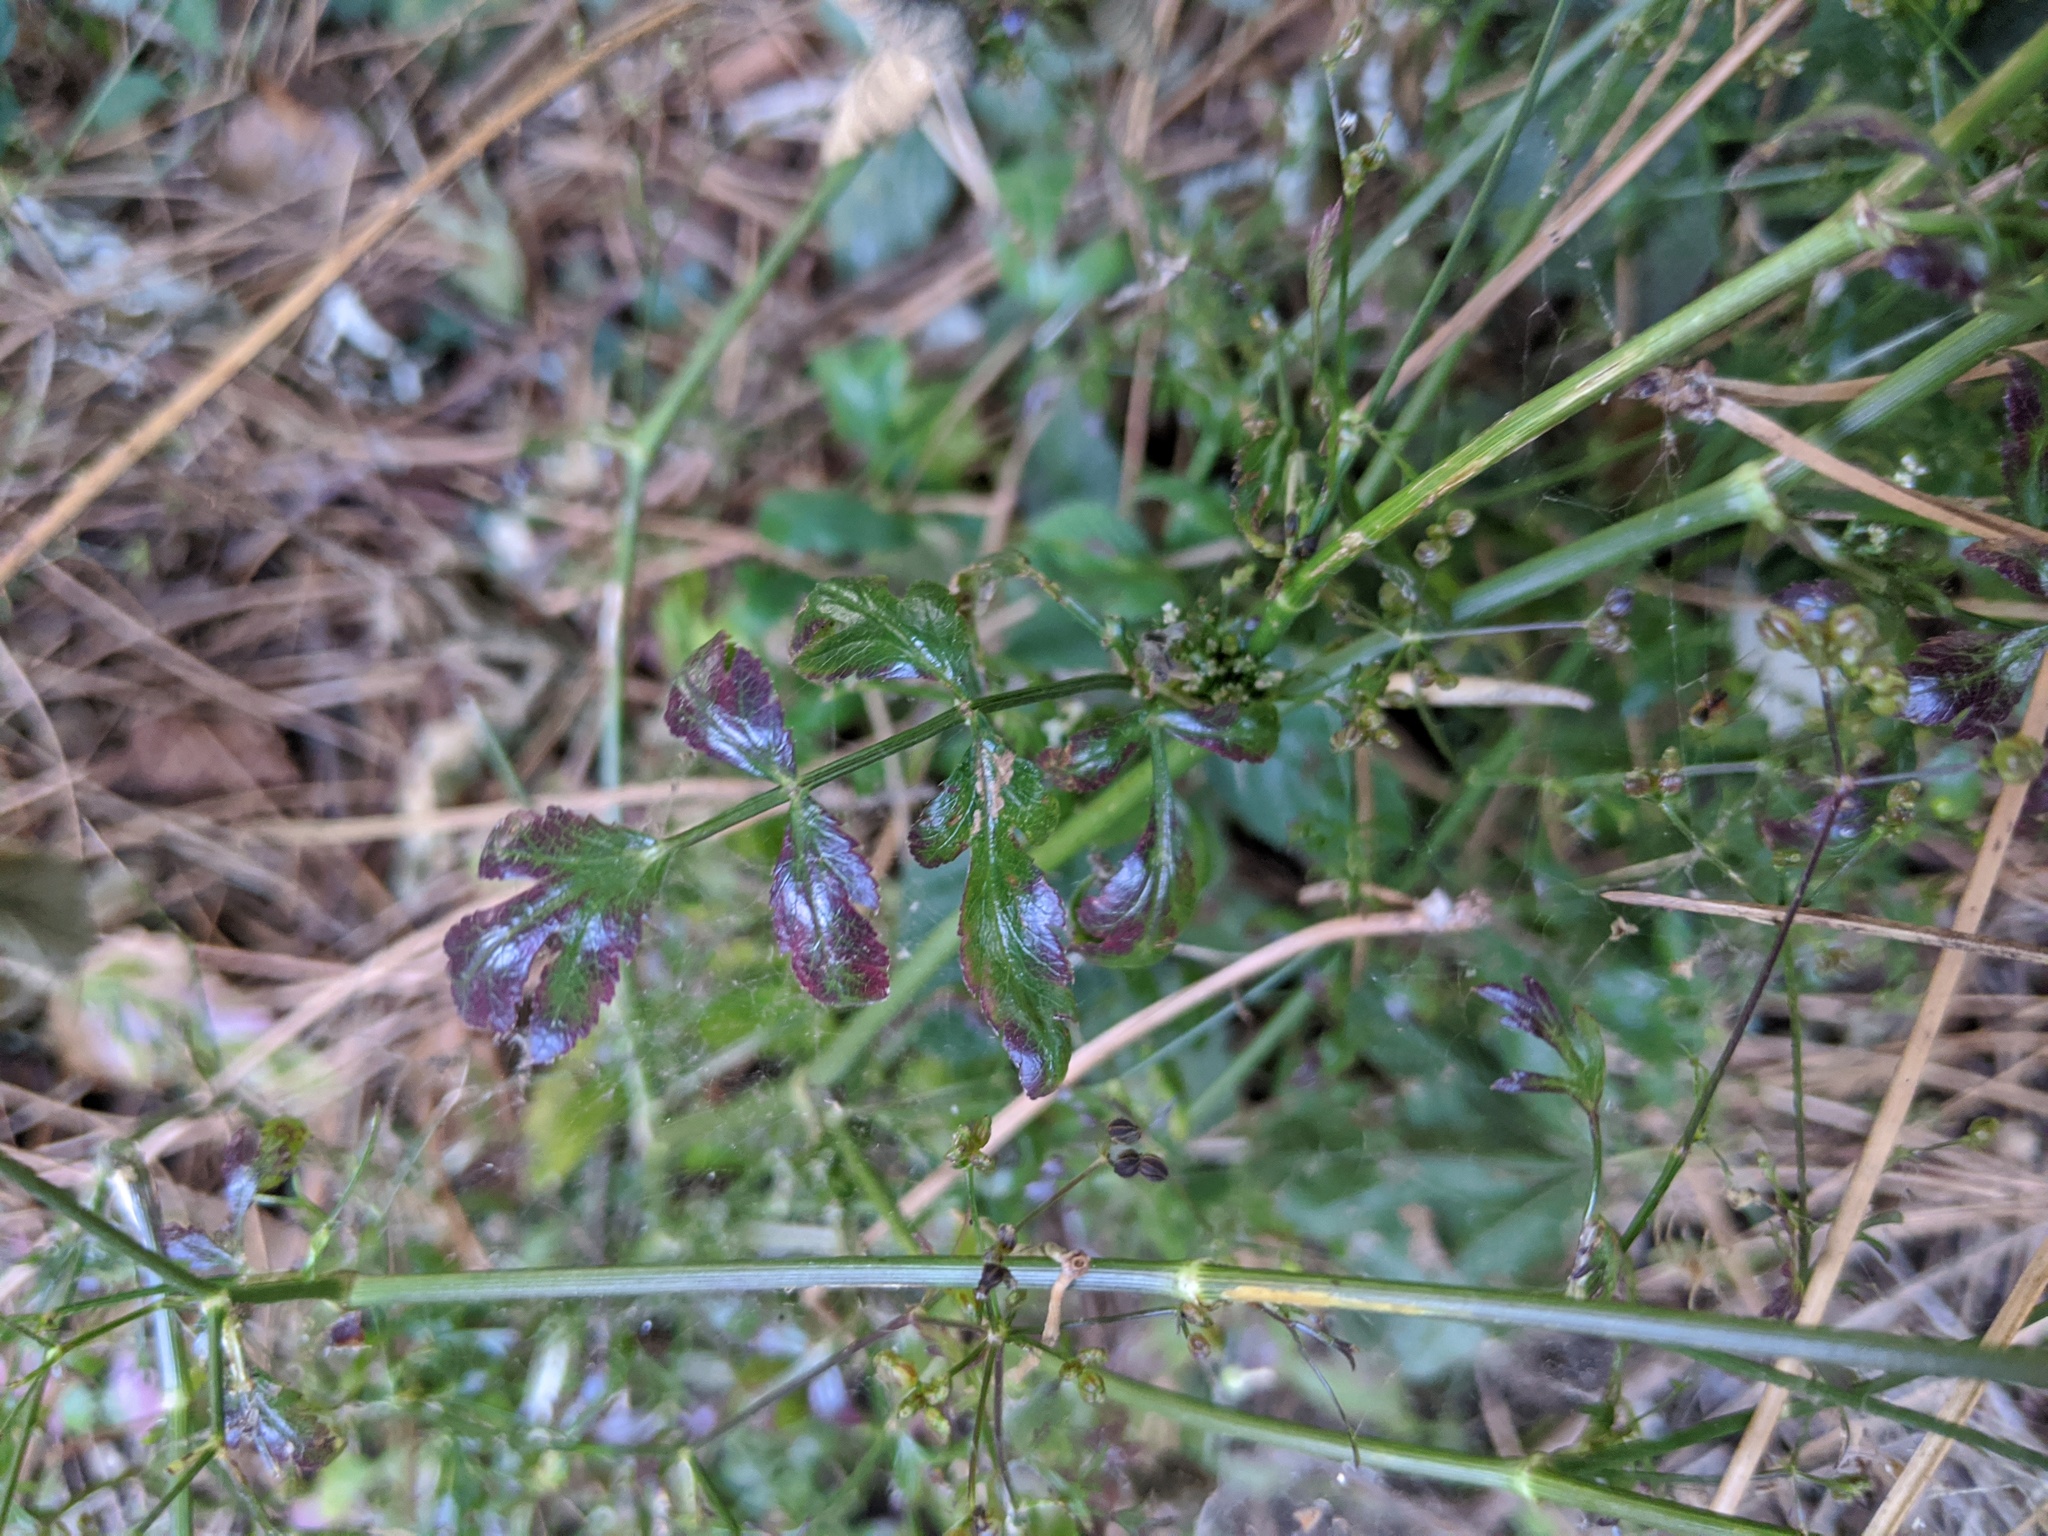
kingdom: Plantae
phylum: Tracheophyta
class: Magnoliopsida
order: Apiales
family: Apiaceae
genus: Sison
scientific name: Sison amomum
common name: Stone-parsley
